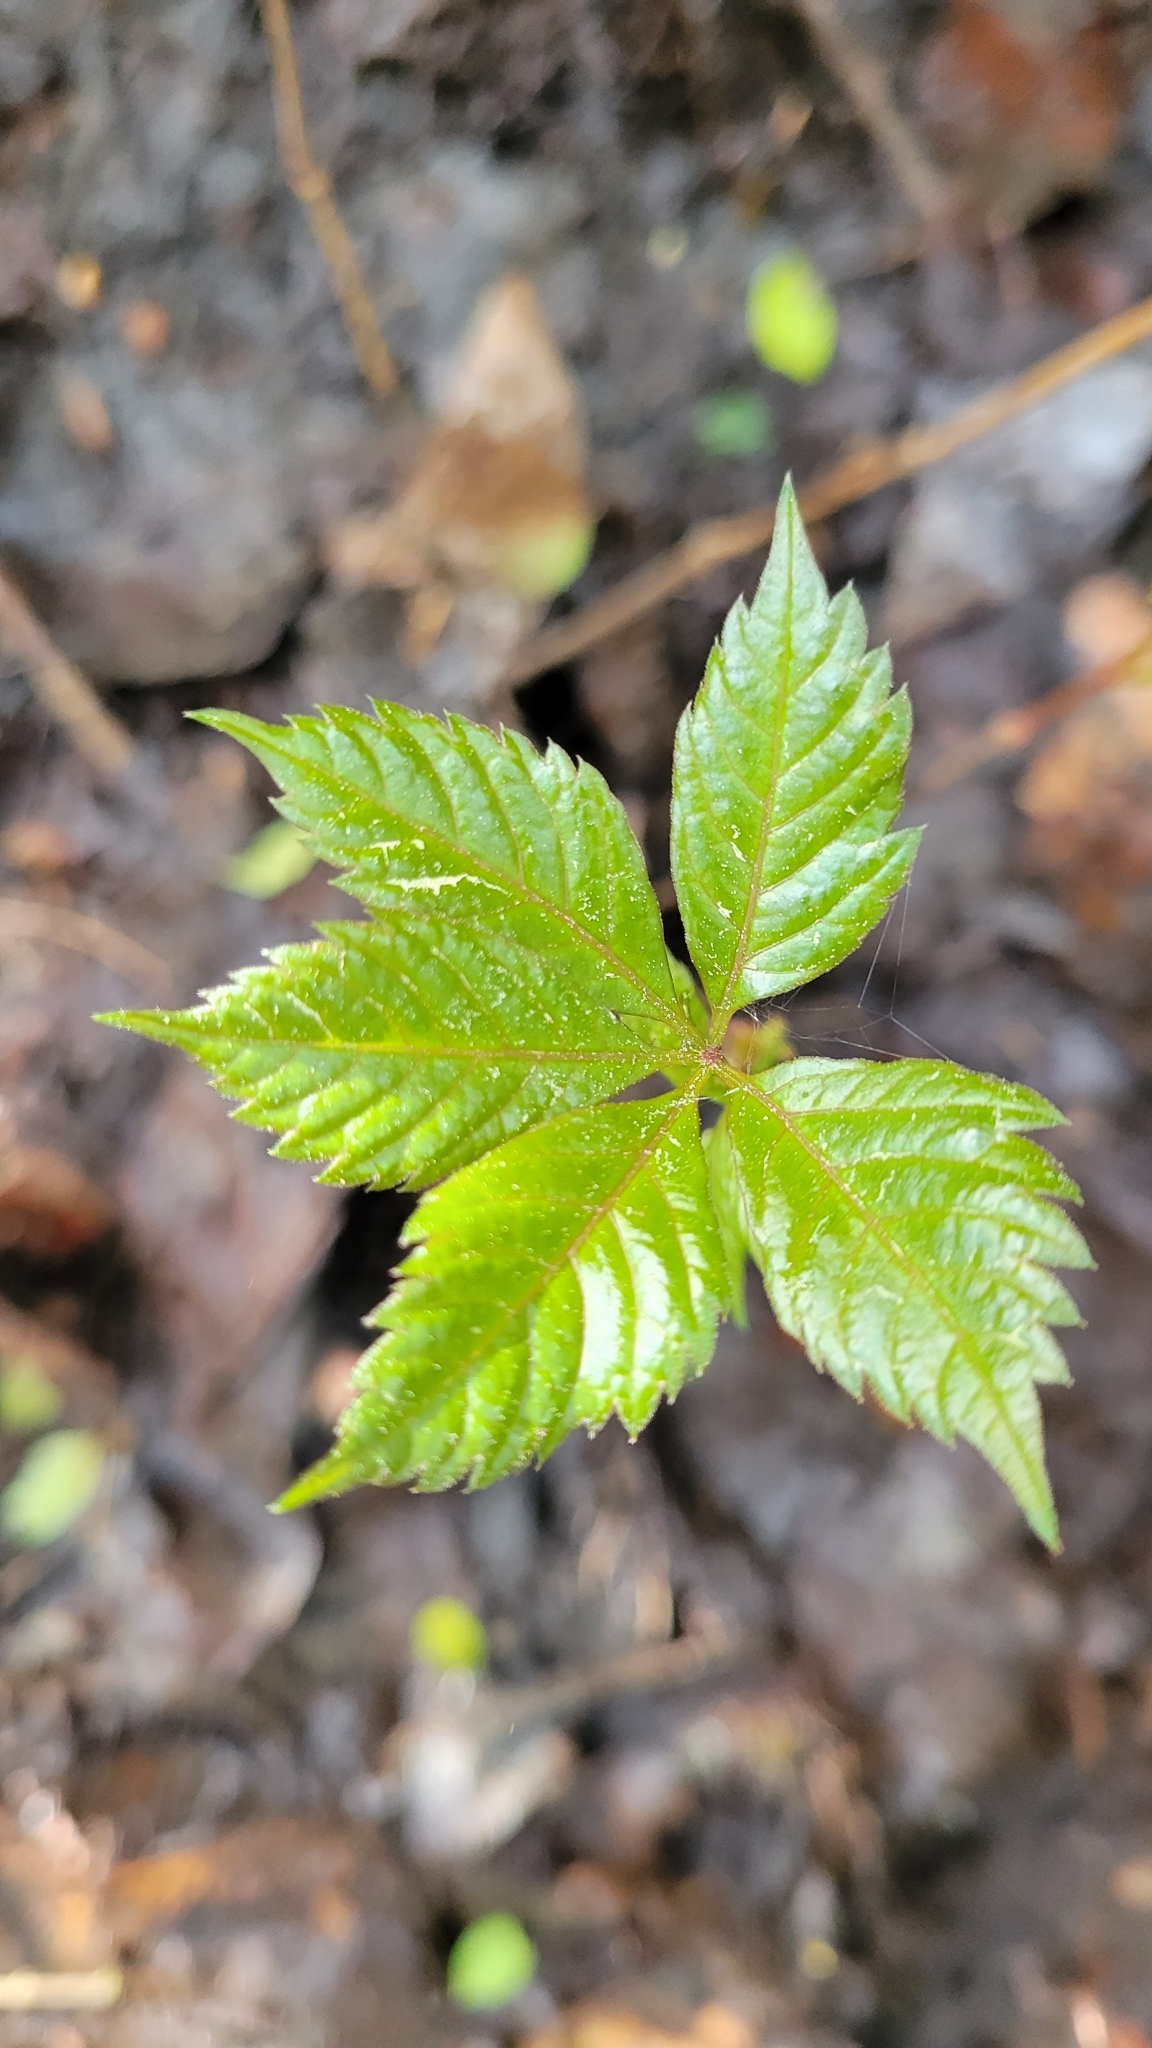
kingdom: Plantae
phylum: Tracheophyta
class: Magnoliopsida
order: Vitales
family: Vitaceae
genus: Parthenocissus
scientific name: Parthenocissus quinquefolia
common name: Virginia-creeper
